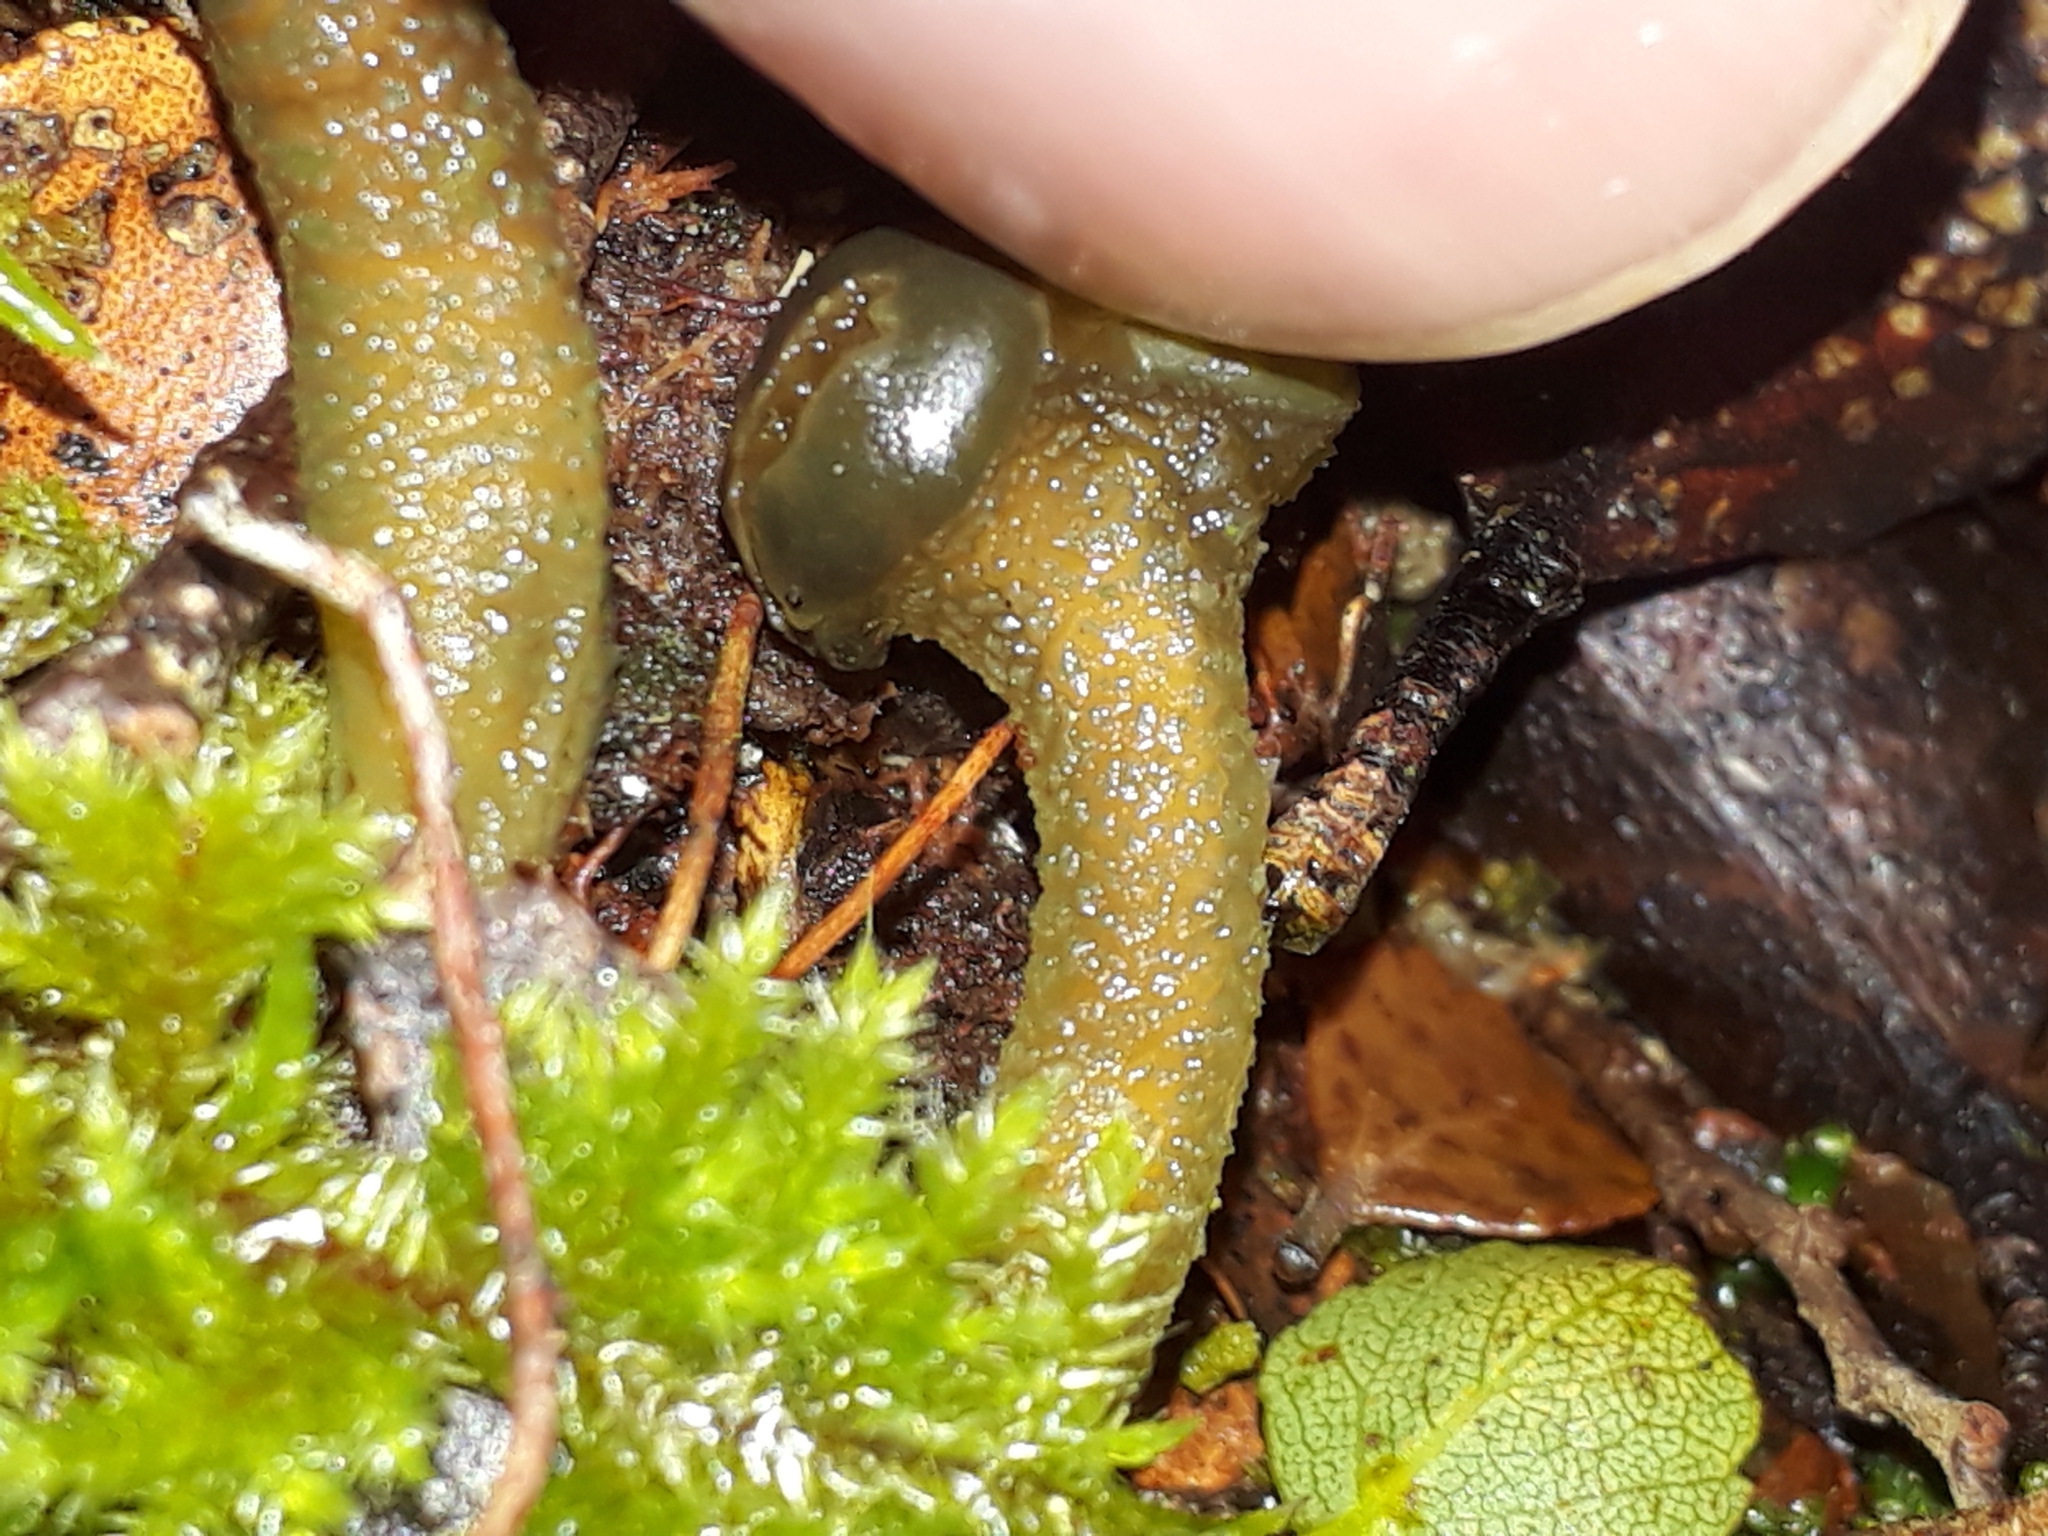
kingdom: Fungi
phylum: Ascomycota
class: Leotiomycetes
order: Leotiales
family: Leotiaceae
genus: Leotia
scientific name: Leotia lubrica
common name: Jellybaby
